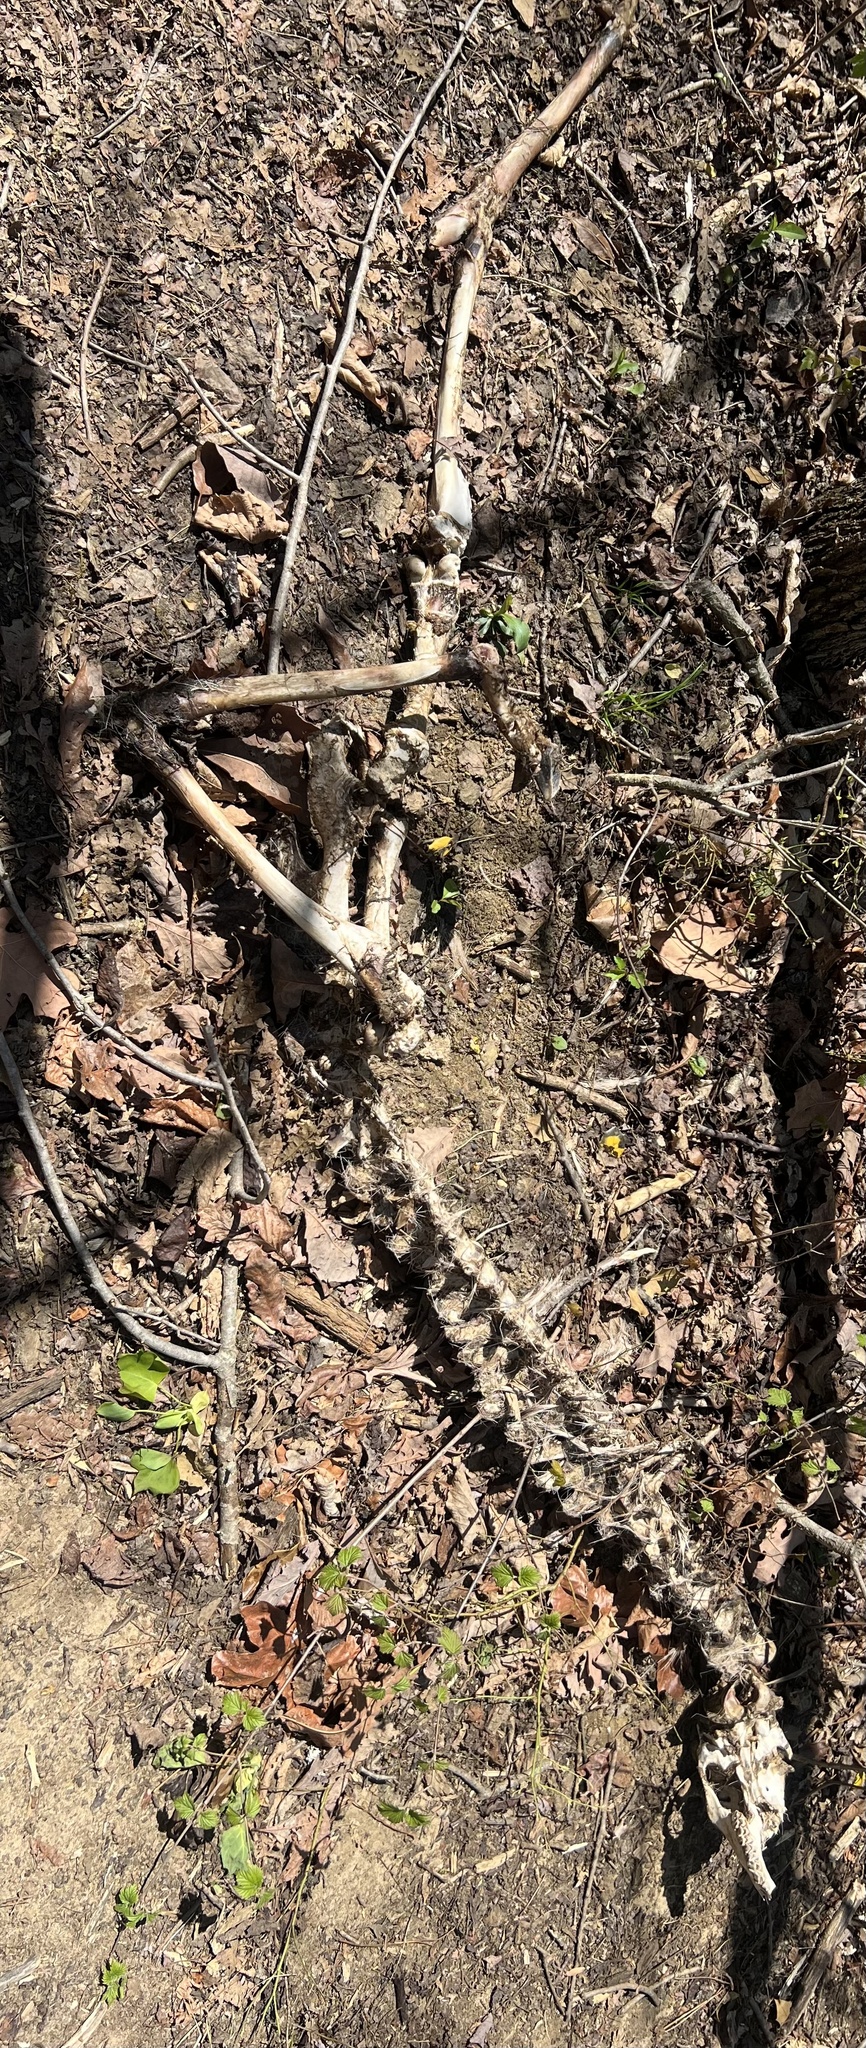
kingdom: Animalia
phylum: Chordata
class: Mammalia
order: Artiodactyla
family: Cervidae
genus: Odocoileus
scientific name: Odocoileus virginianus
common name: White-tailed deer
